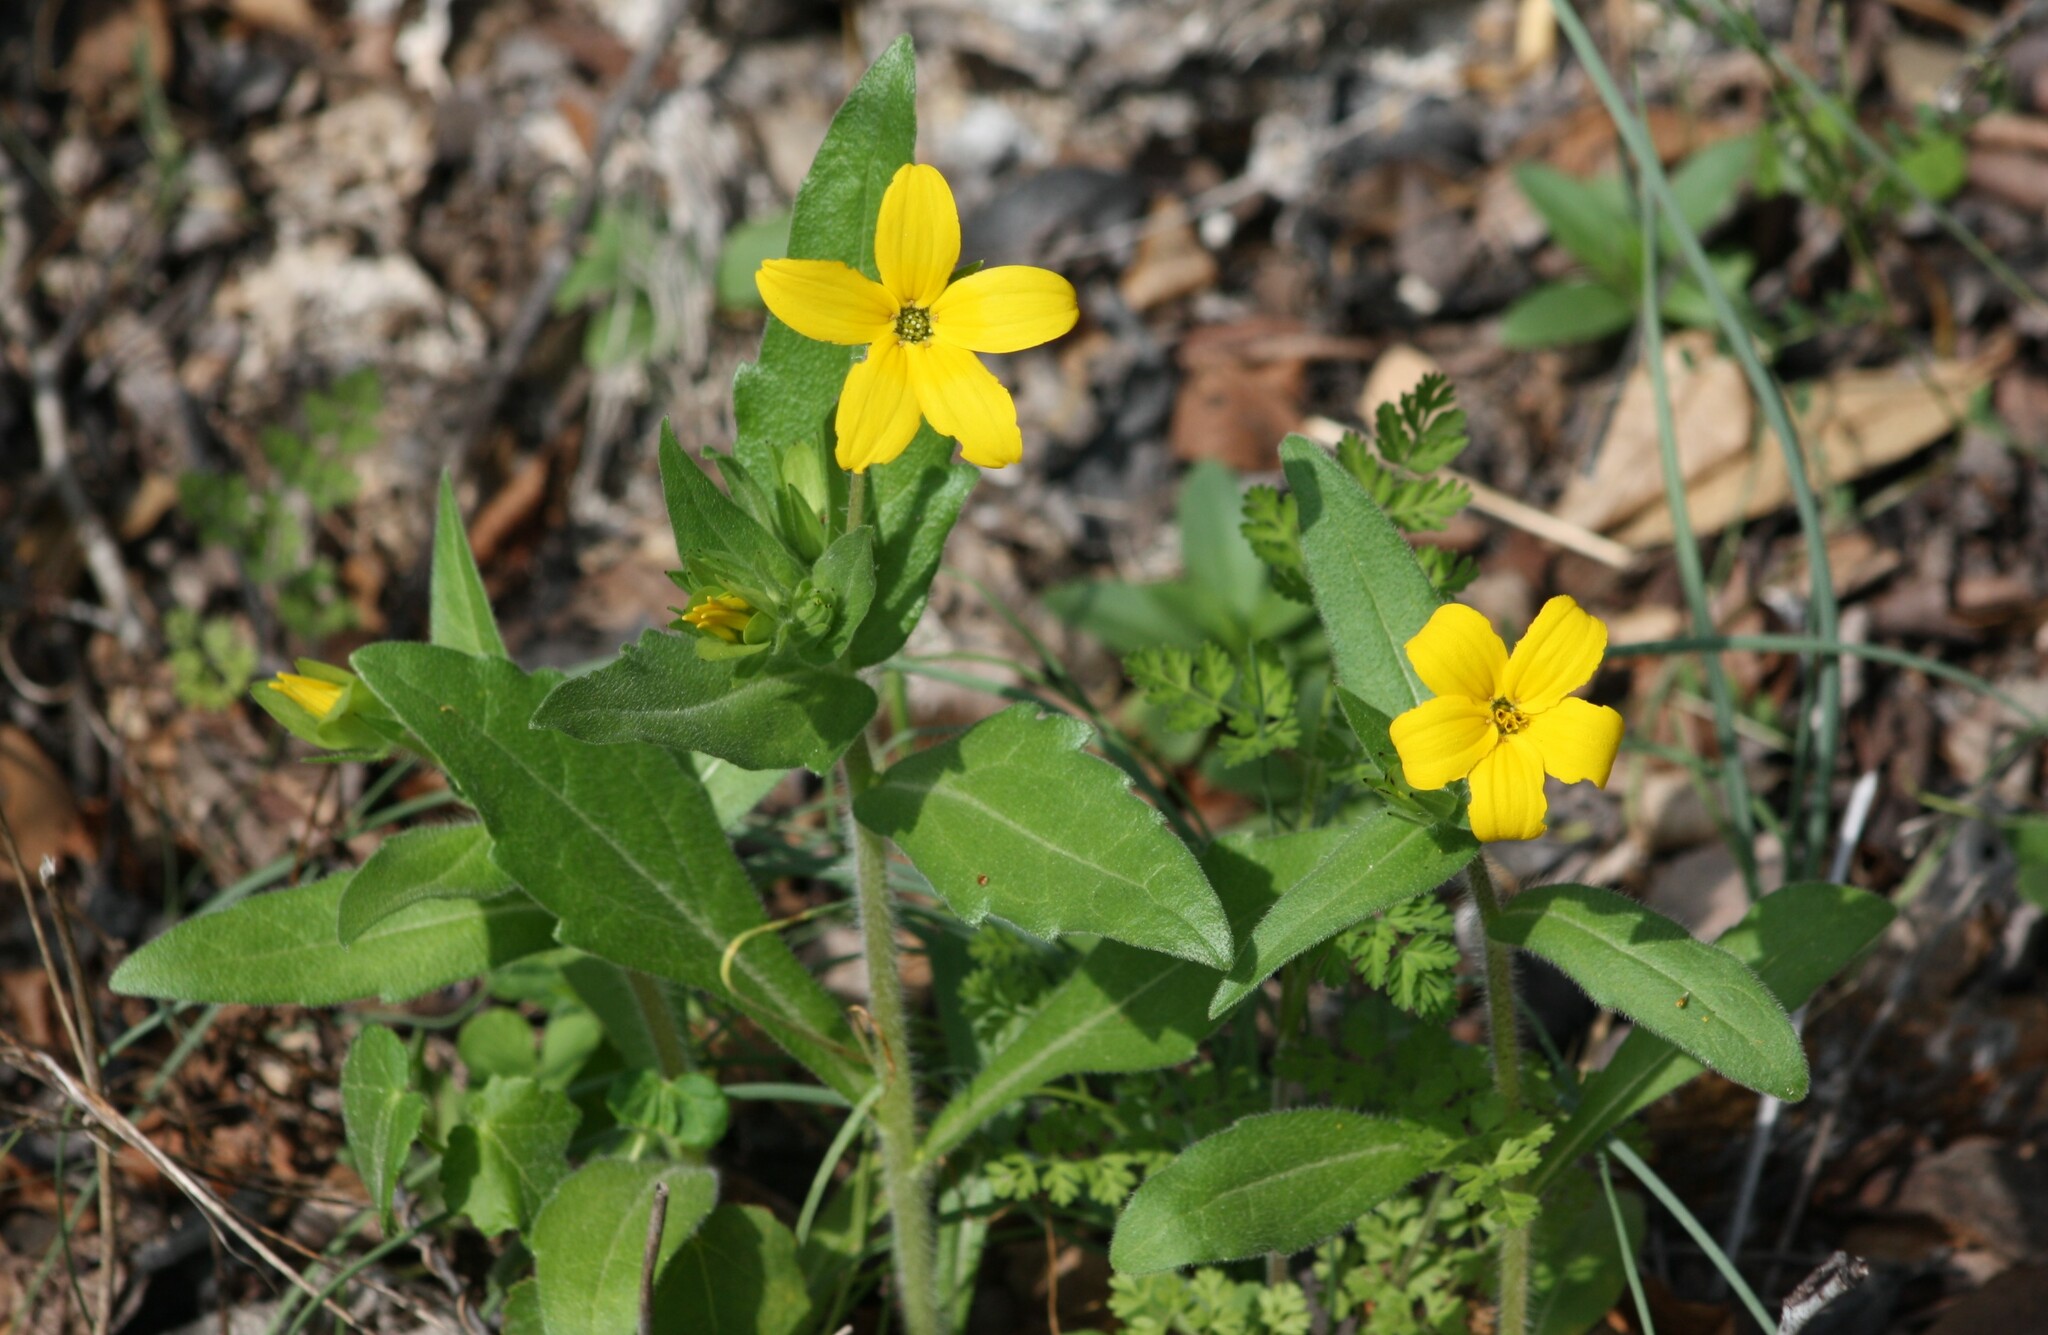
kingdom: Plantae
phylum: Tracheophyta
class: Magnoliopsida
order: Asterales
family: Asteraceae
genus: Lindheimera
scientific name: Lindheimera texana
